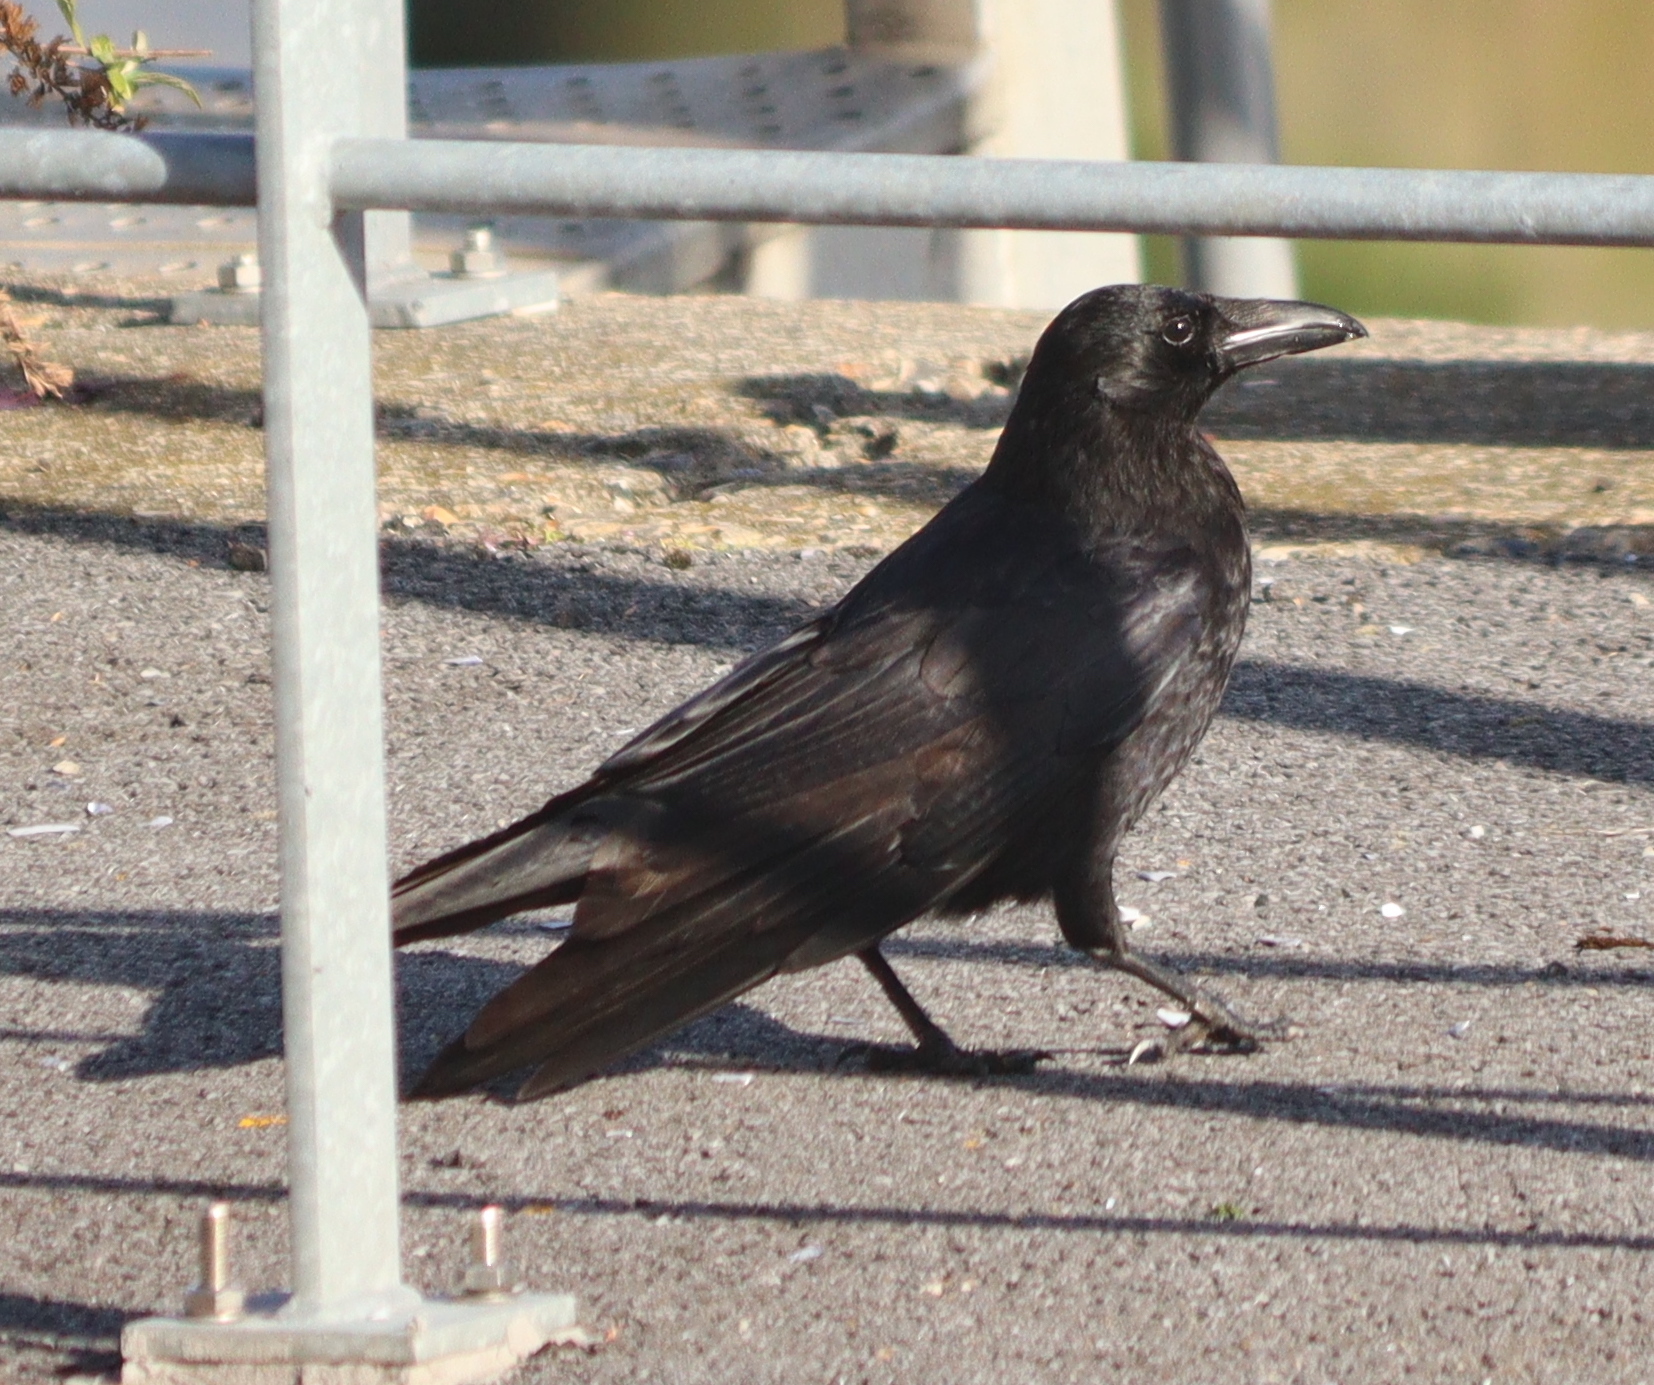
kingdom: Animalia
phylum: Chordata
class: Aves
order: Passeriformes
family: Corvidae
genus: Corvus
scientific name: Corvus corone
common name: Carrion crow
